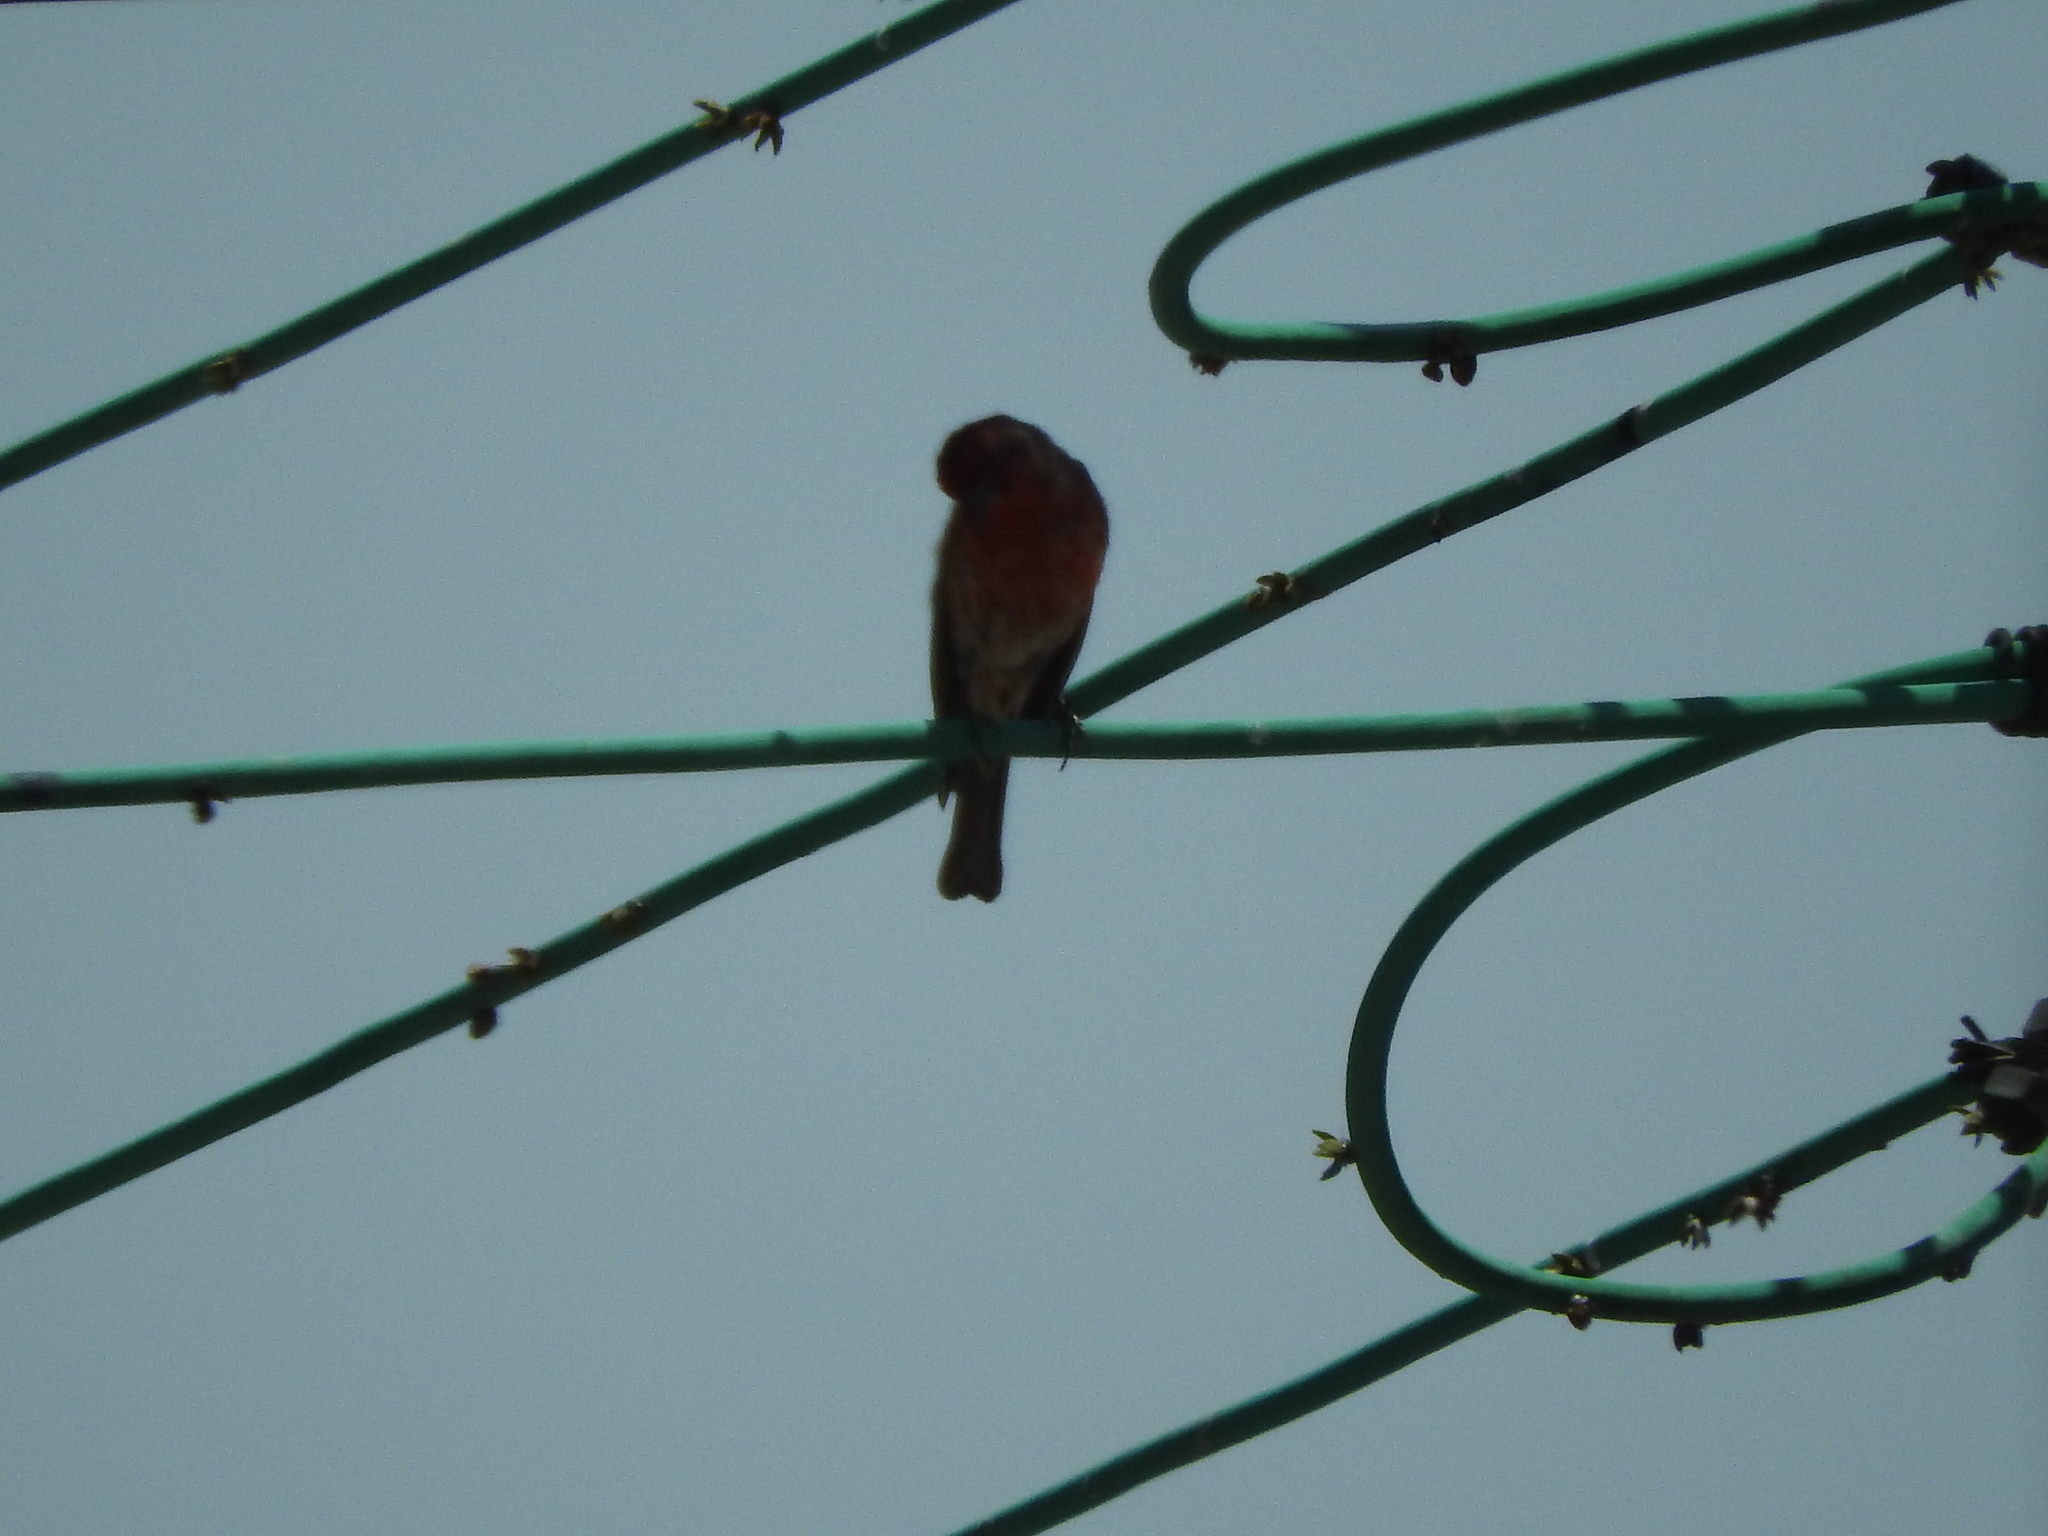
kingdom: Animalia
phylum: Chordata
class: Aves
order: Passeriformes
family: Fringillidae
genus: Haemorhous
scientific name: Haemorhous mexicanus
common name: House finch
